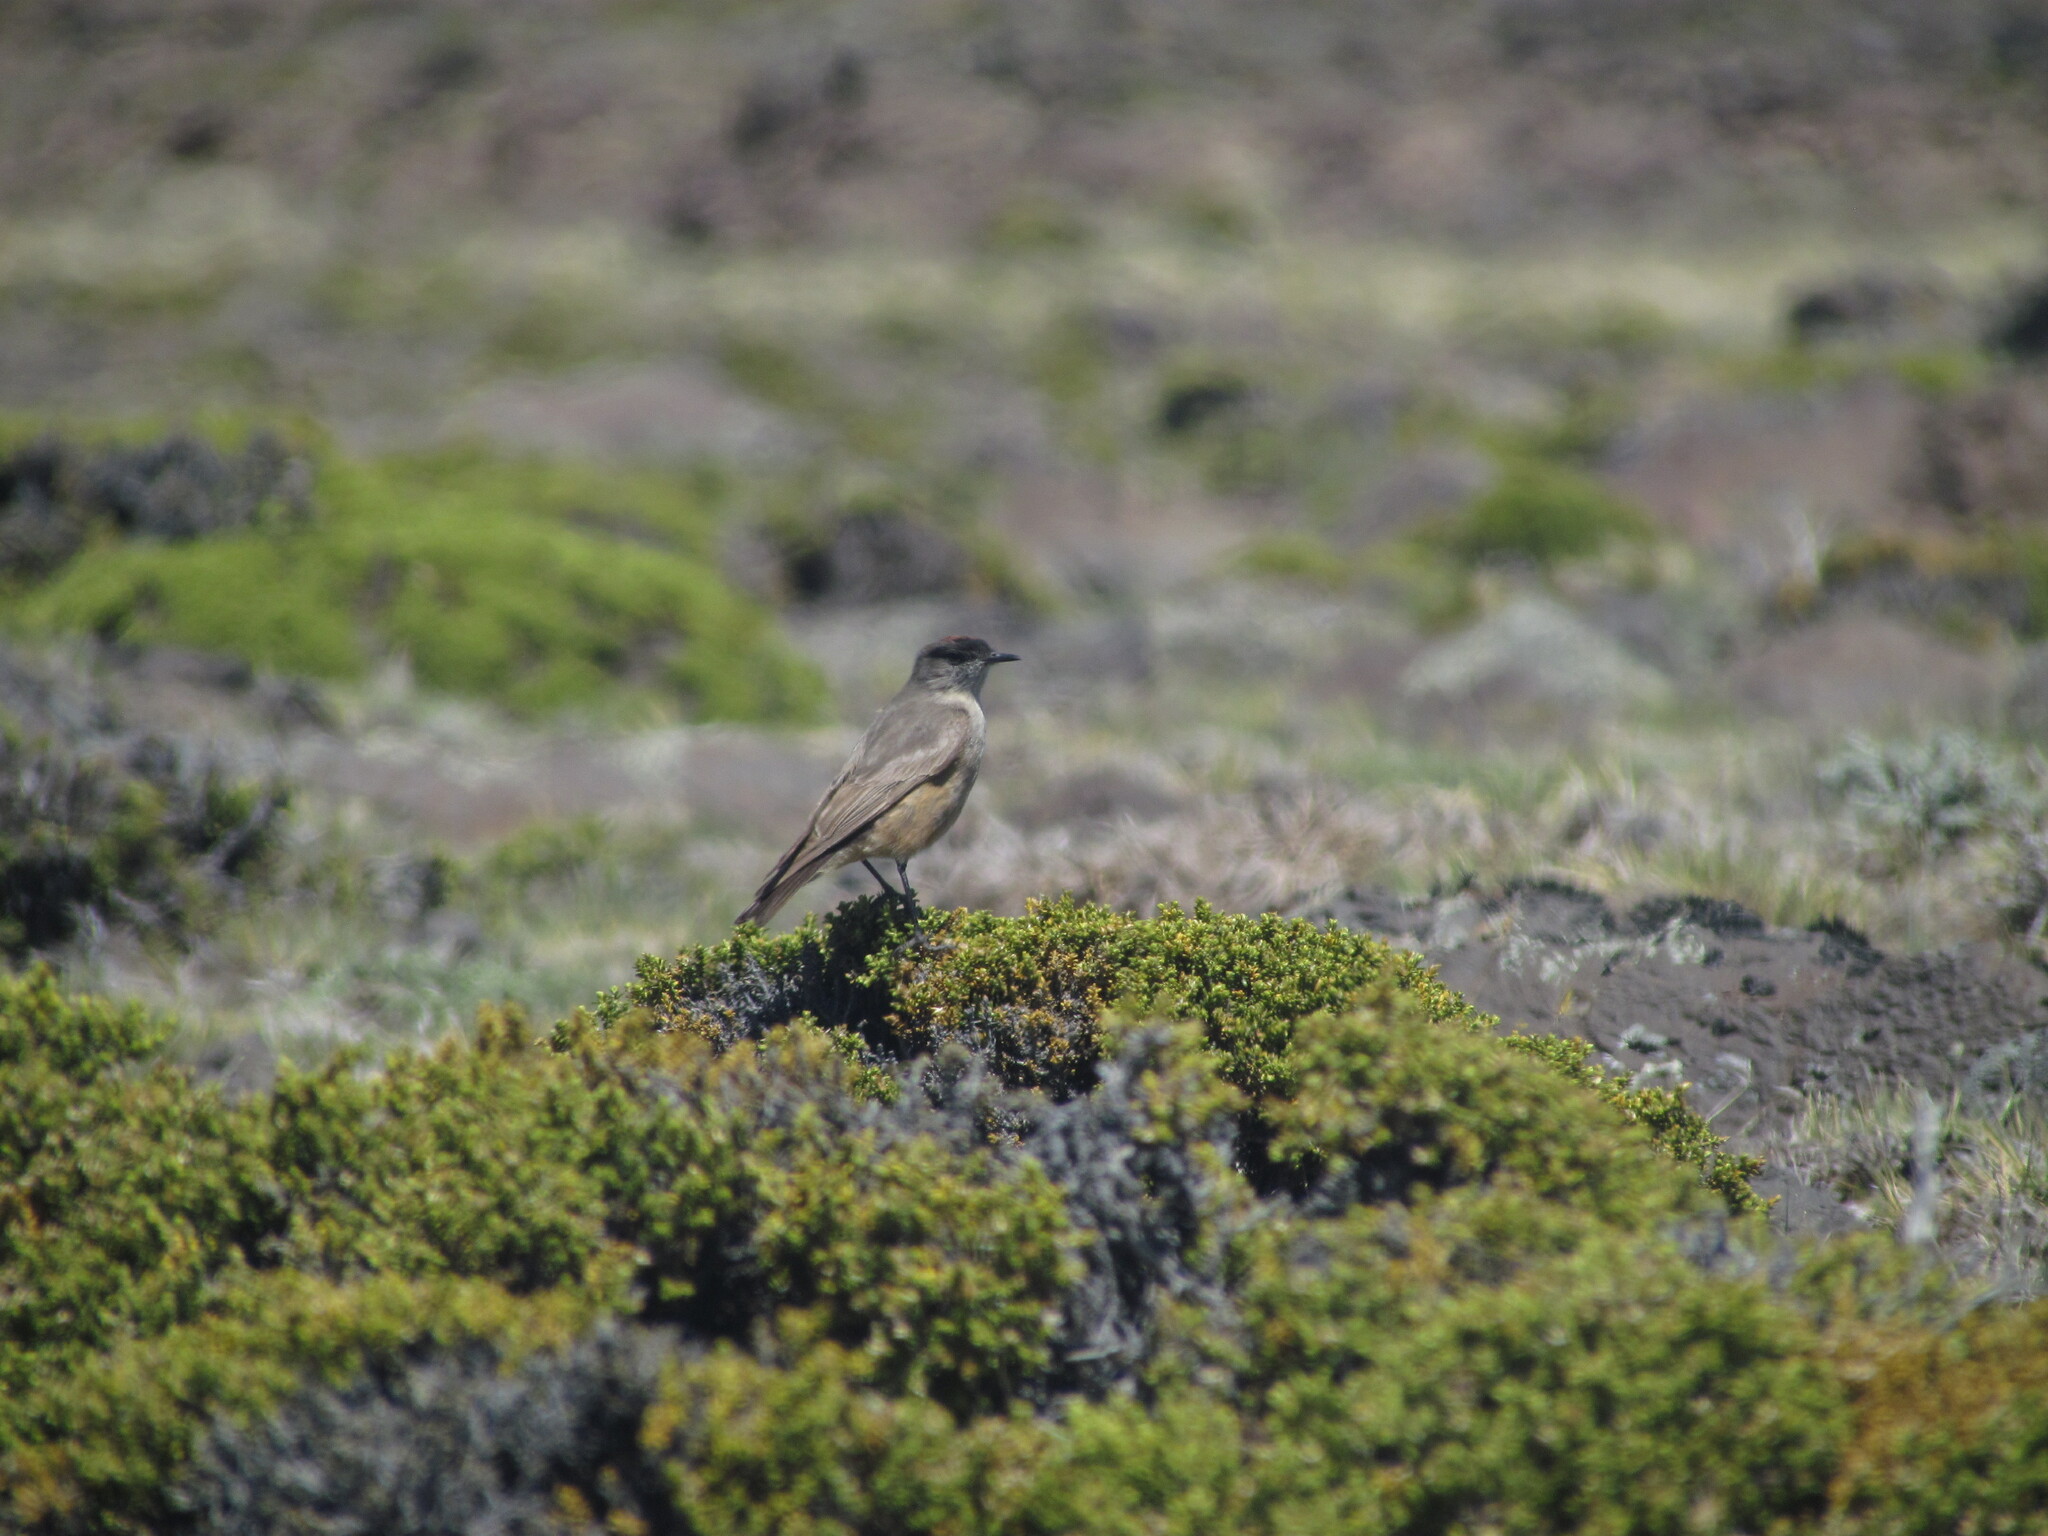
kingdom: Animalia
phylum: Chordata
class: Aves
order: Passeriformes
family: Tyrannidae
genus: Muscisaxicola
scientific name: Muscisaxicola capistratus
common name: Cinnamon-bellied ground tyrant
